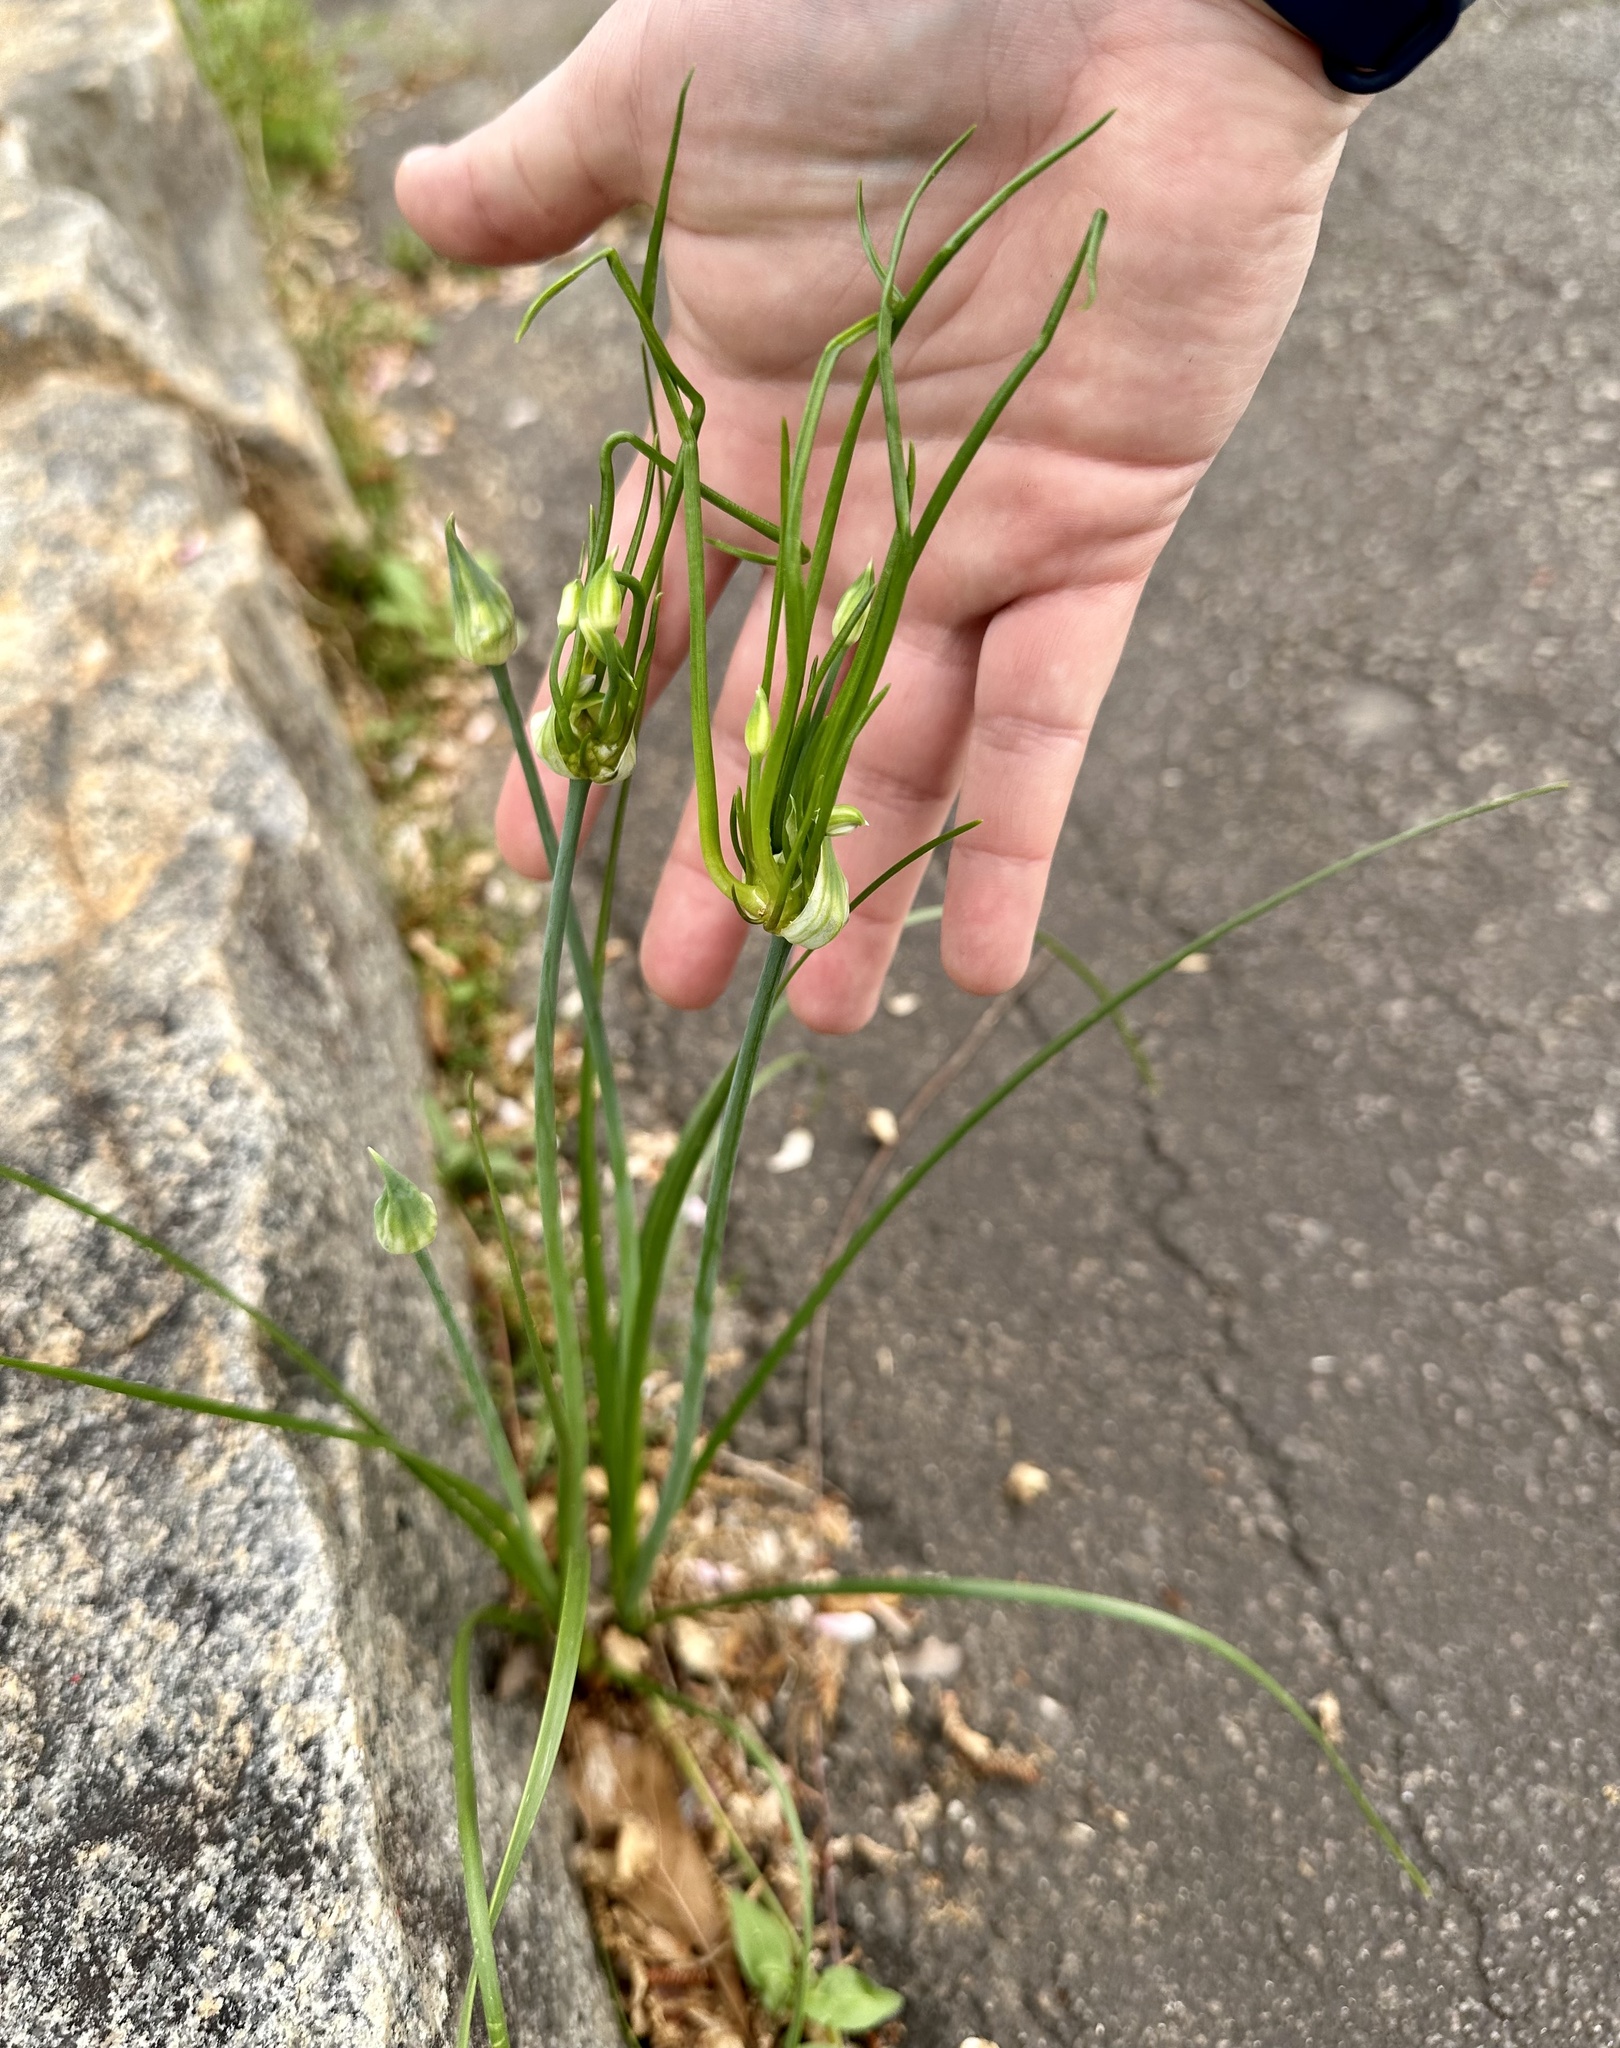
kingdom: Plantae
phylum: Tracheophyta
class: Liliopsida
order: Asparagales
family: Amaryllidaceae
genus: Allium
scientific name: Allium canadense
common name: Meadow garlic
